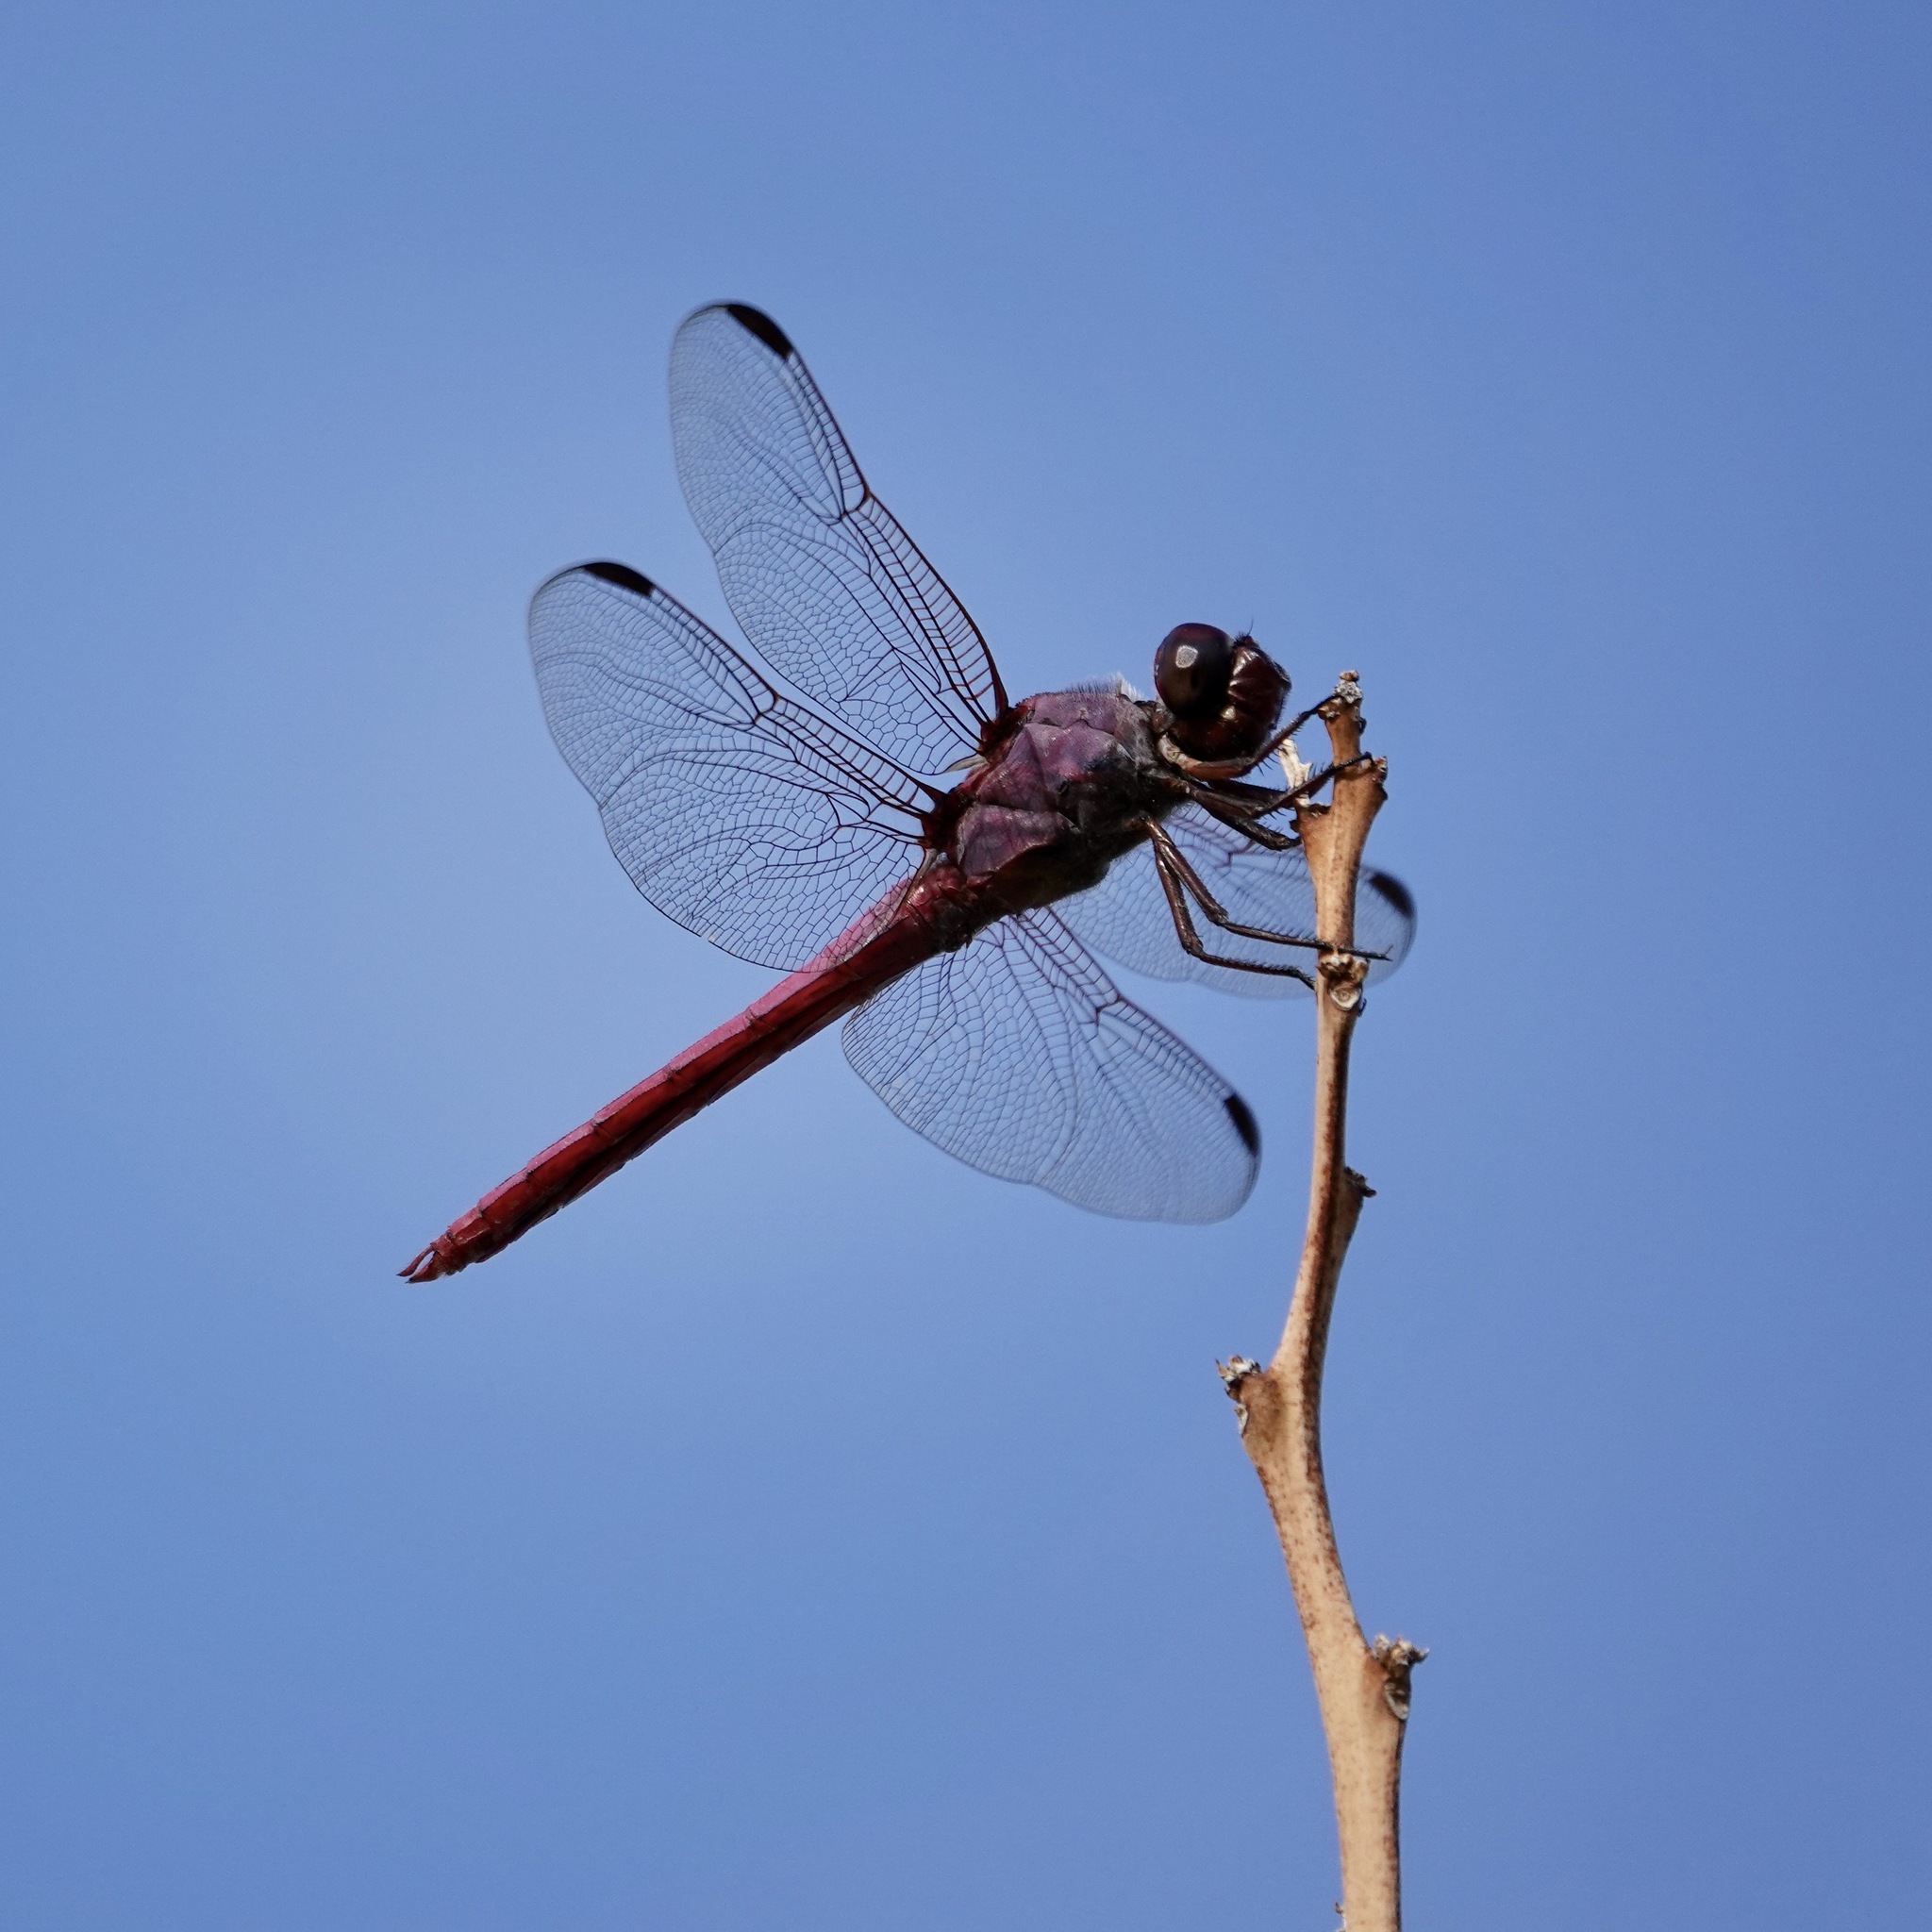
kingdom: Animalia
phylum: Arthropoda
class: Insecta
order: Odonata
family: Libellulidae
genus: Orthemis
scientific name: Orthemis ferruginea
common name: Roseate skimmer
